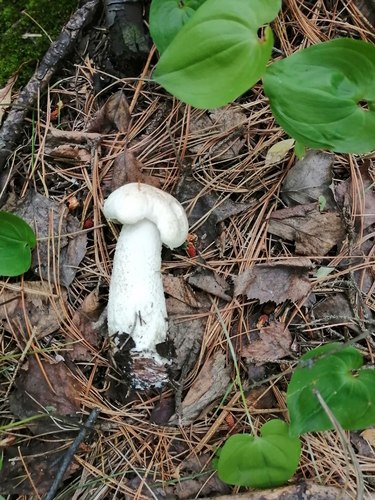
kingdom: Fungi
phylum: Basidiomycota
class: Agaricomycetes
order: Boletales
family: Boletaceae
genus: Leccinum
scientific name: Leccinum versipelle
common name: Orange birch bolete
